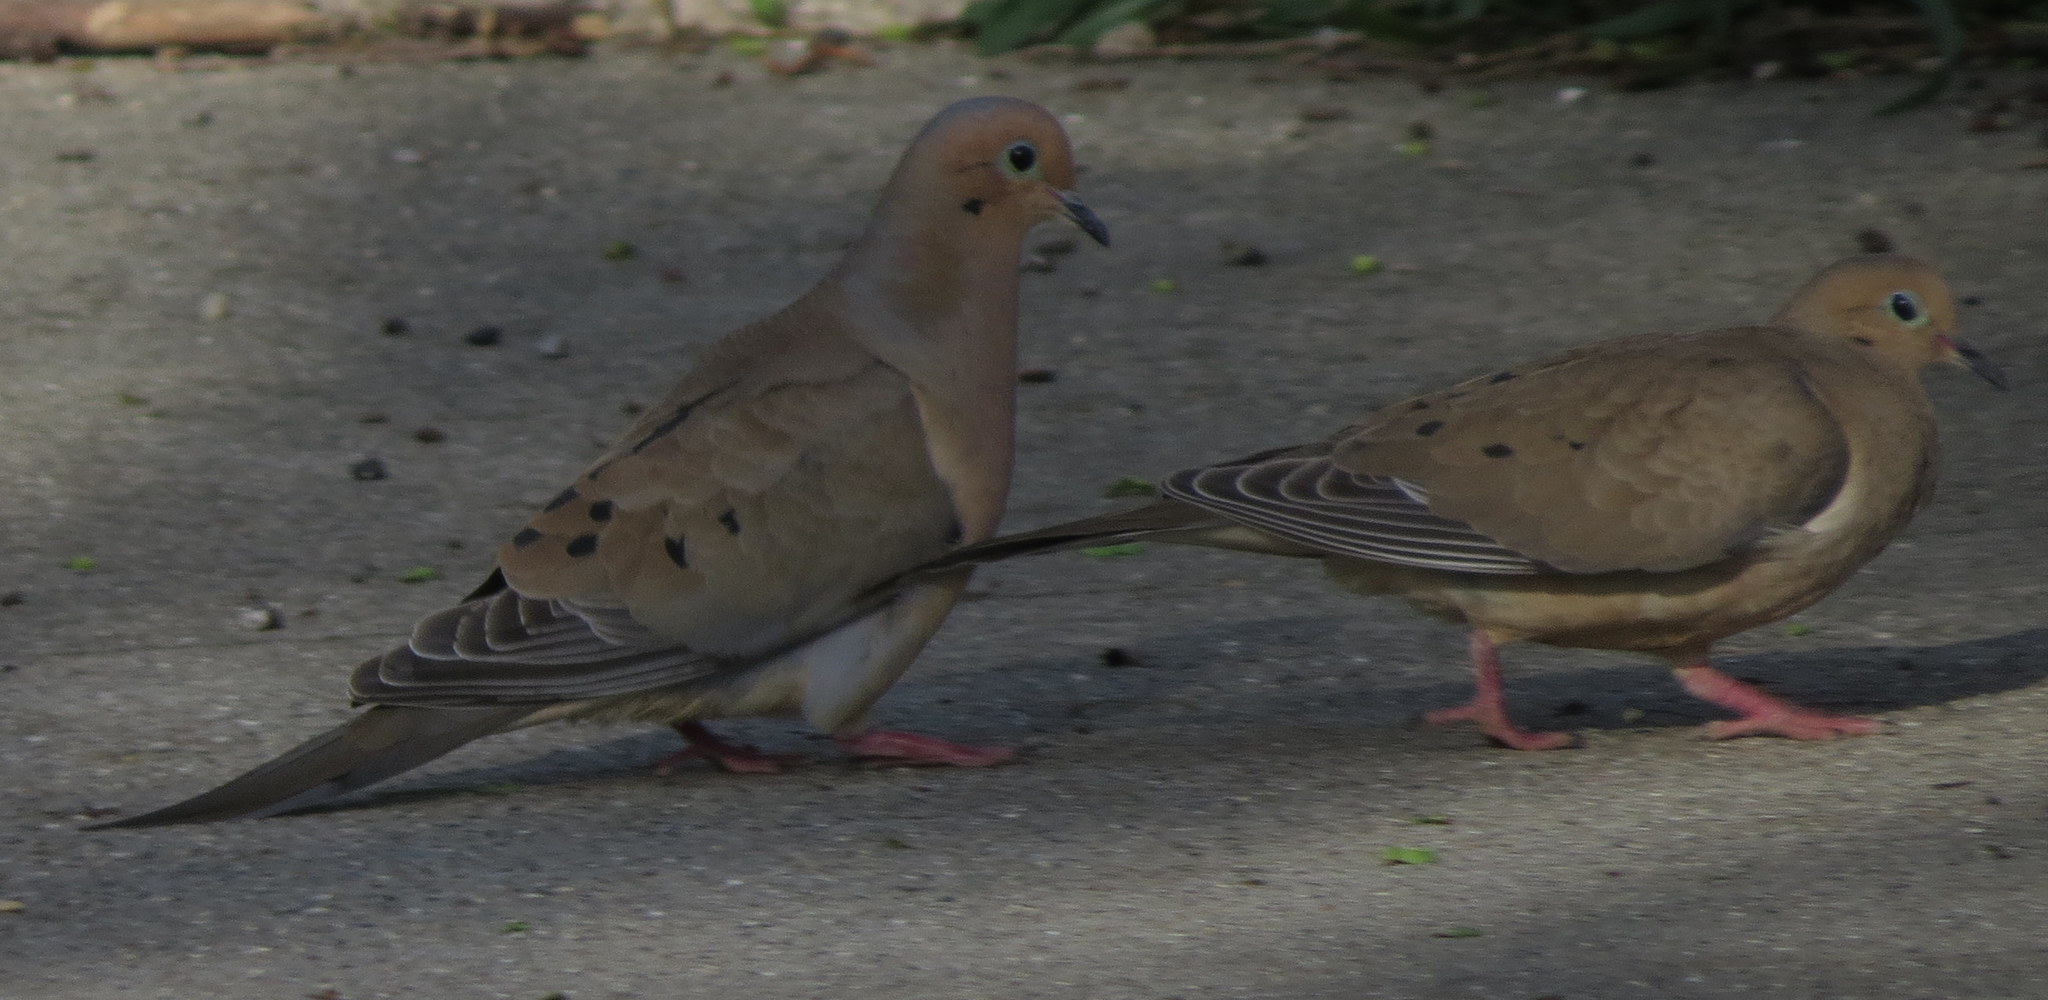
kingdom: Animalia
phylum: Chordata
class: Aves
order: Columbiformes
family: Columbidae
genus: Zenaida
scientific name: Zenaida macroura
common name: Mourning dove
